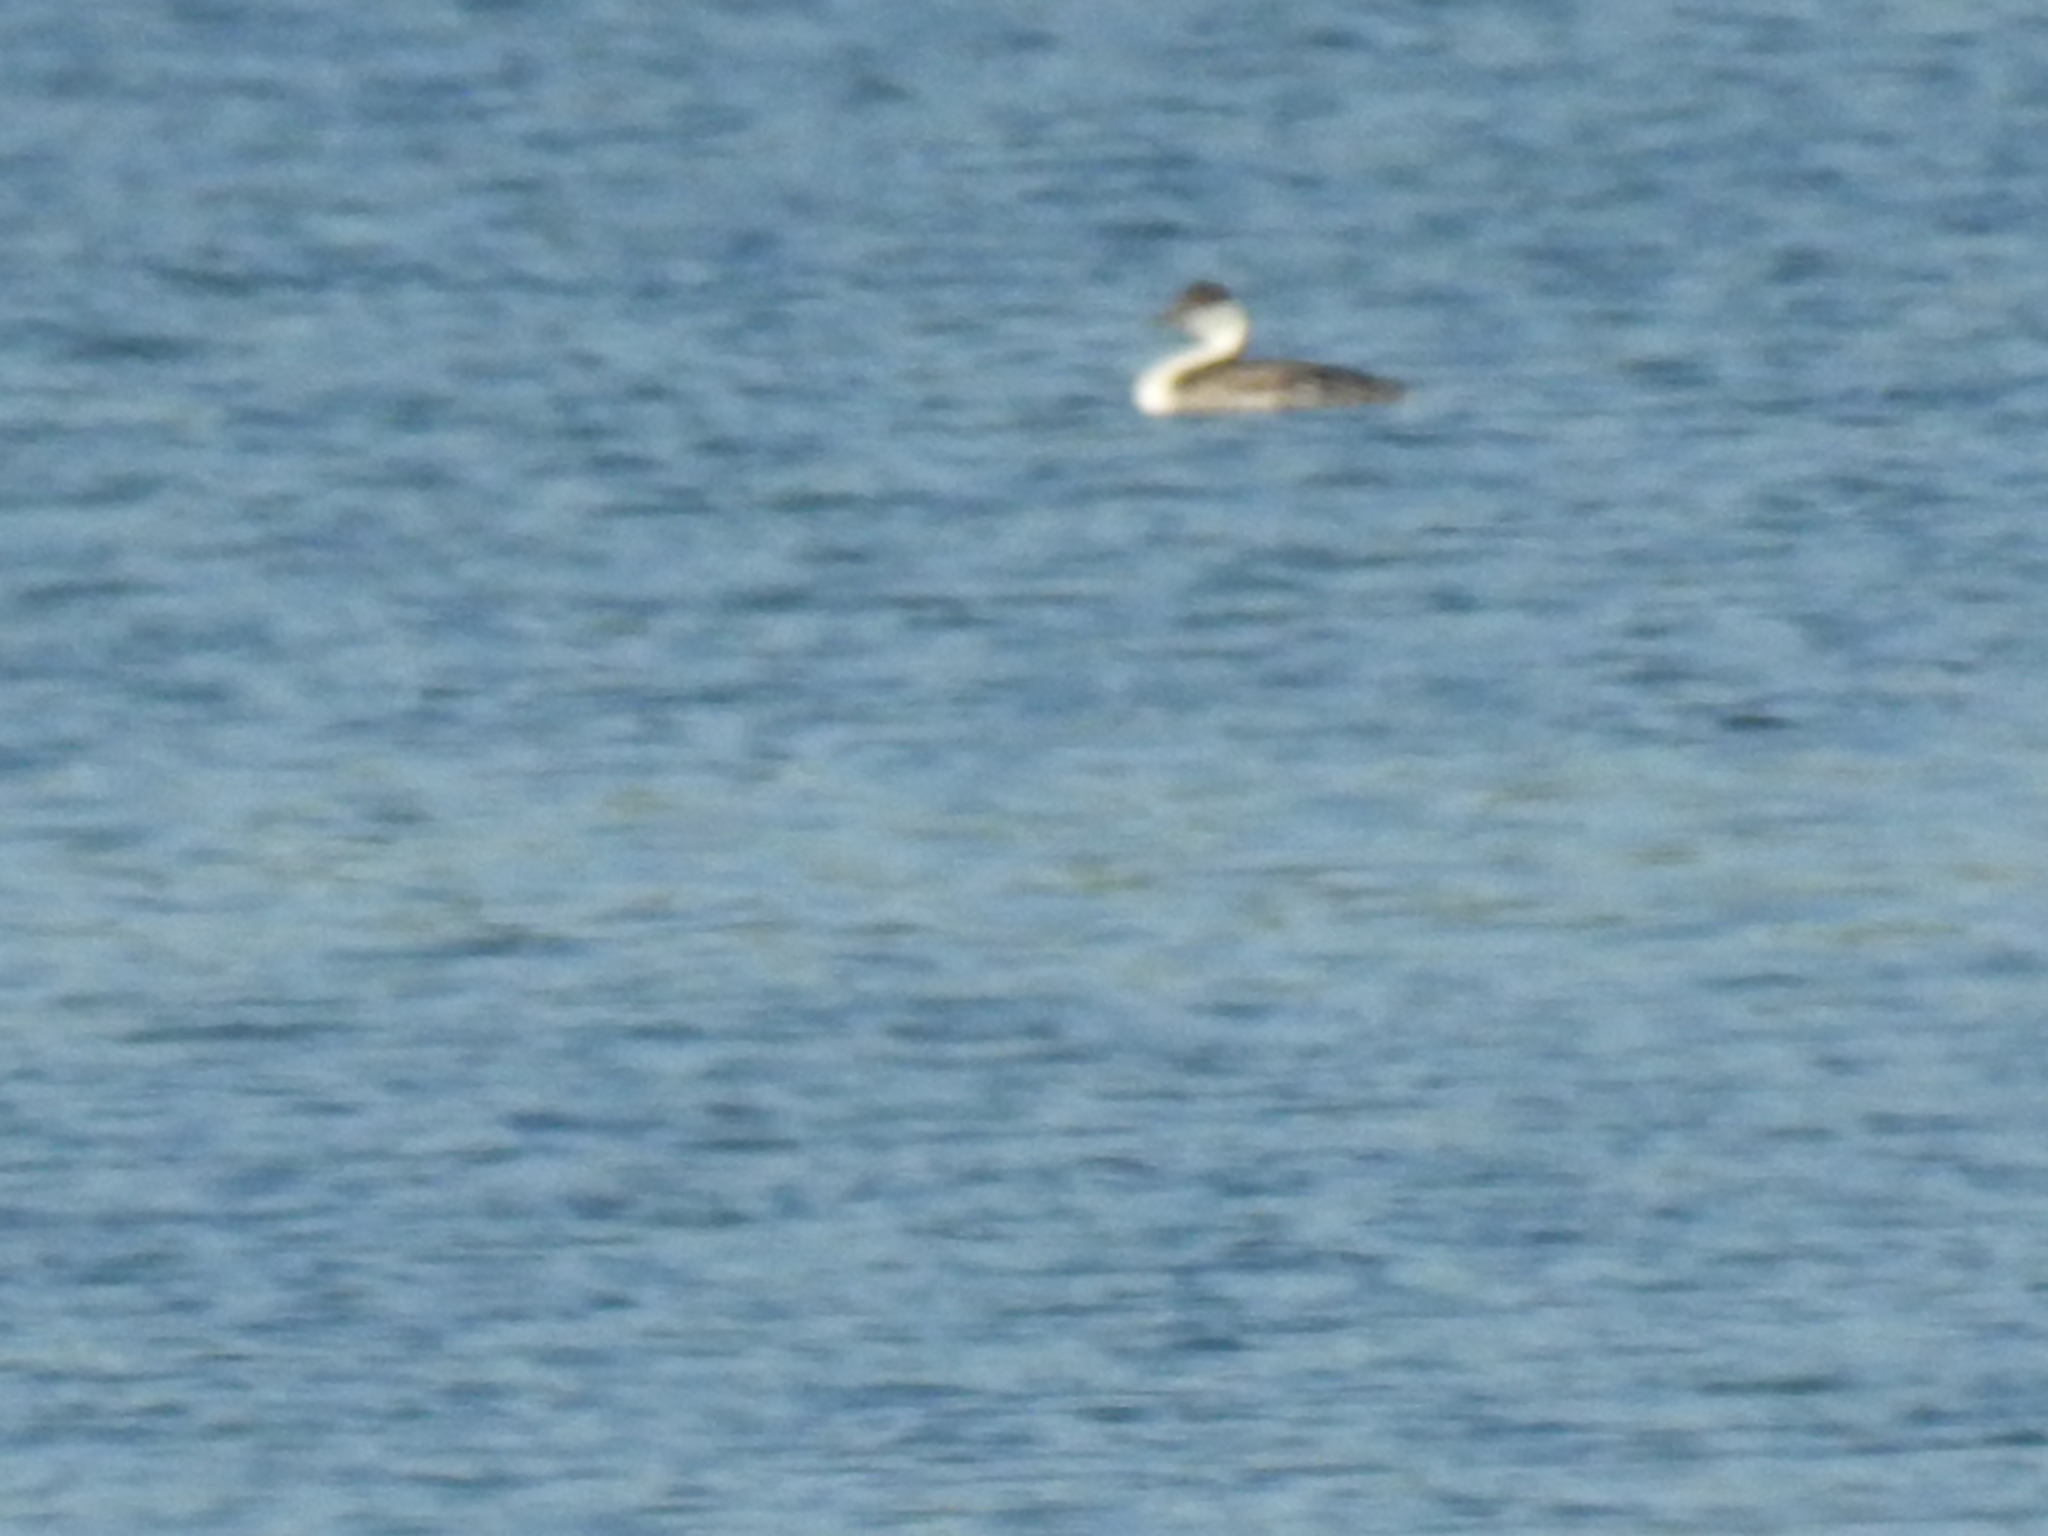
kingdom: Animalia
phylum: Chordata
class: Aves
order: Podicipediformes
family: Podicipedidae
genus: Aechmophorus
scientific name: Aechmophorus occidentalis
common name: Western grebe
